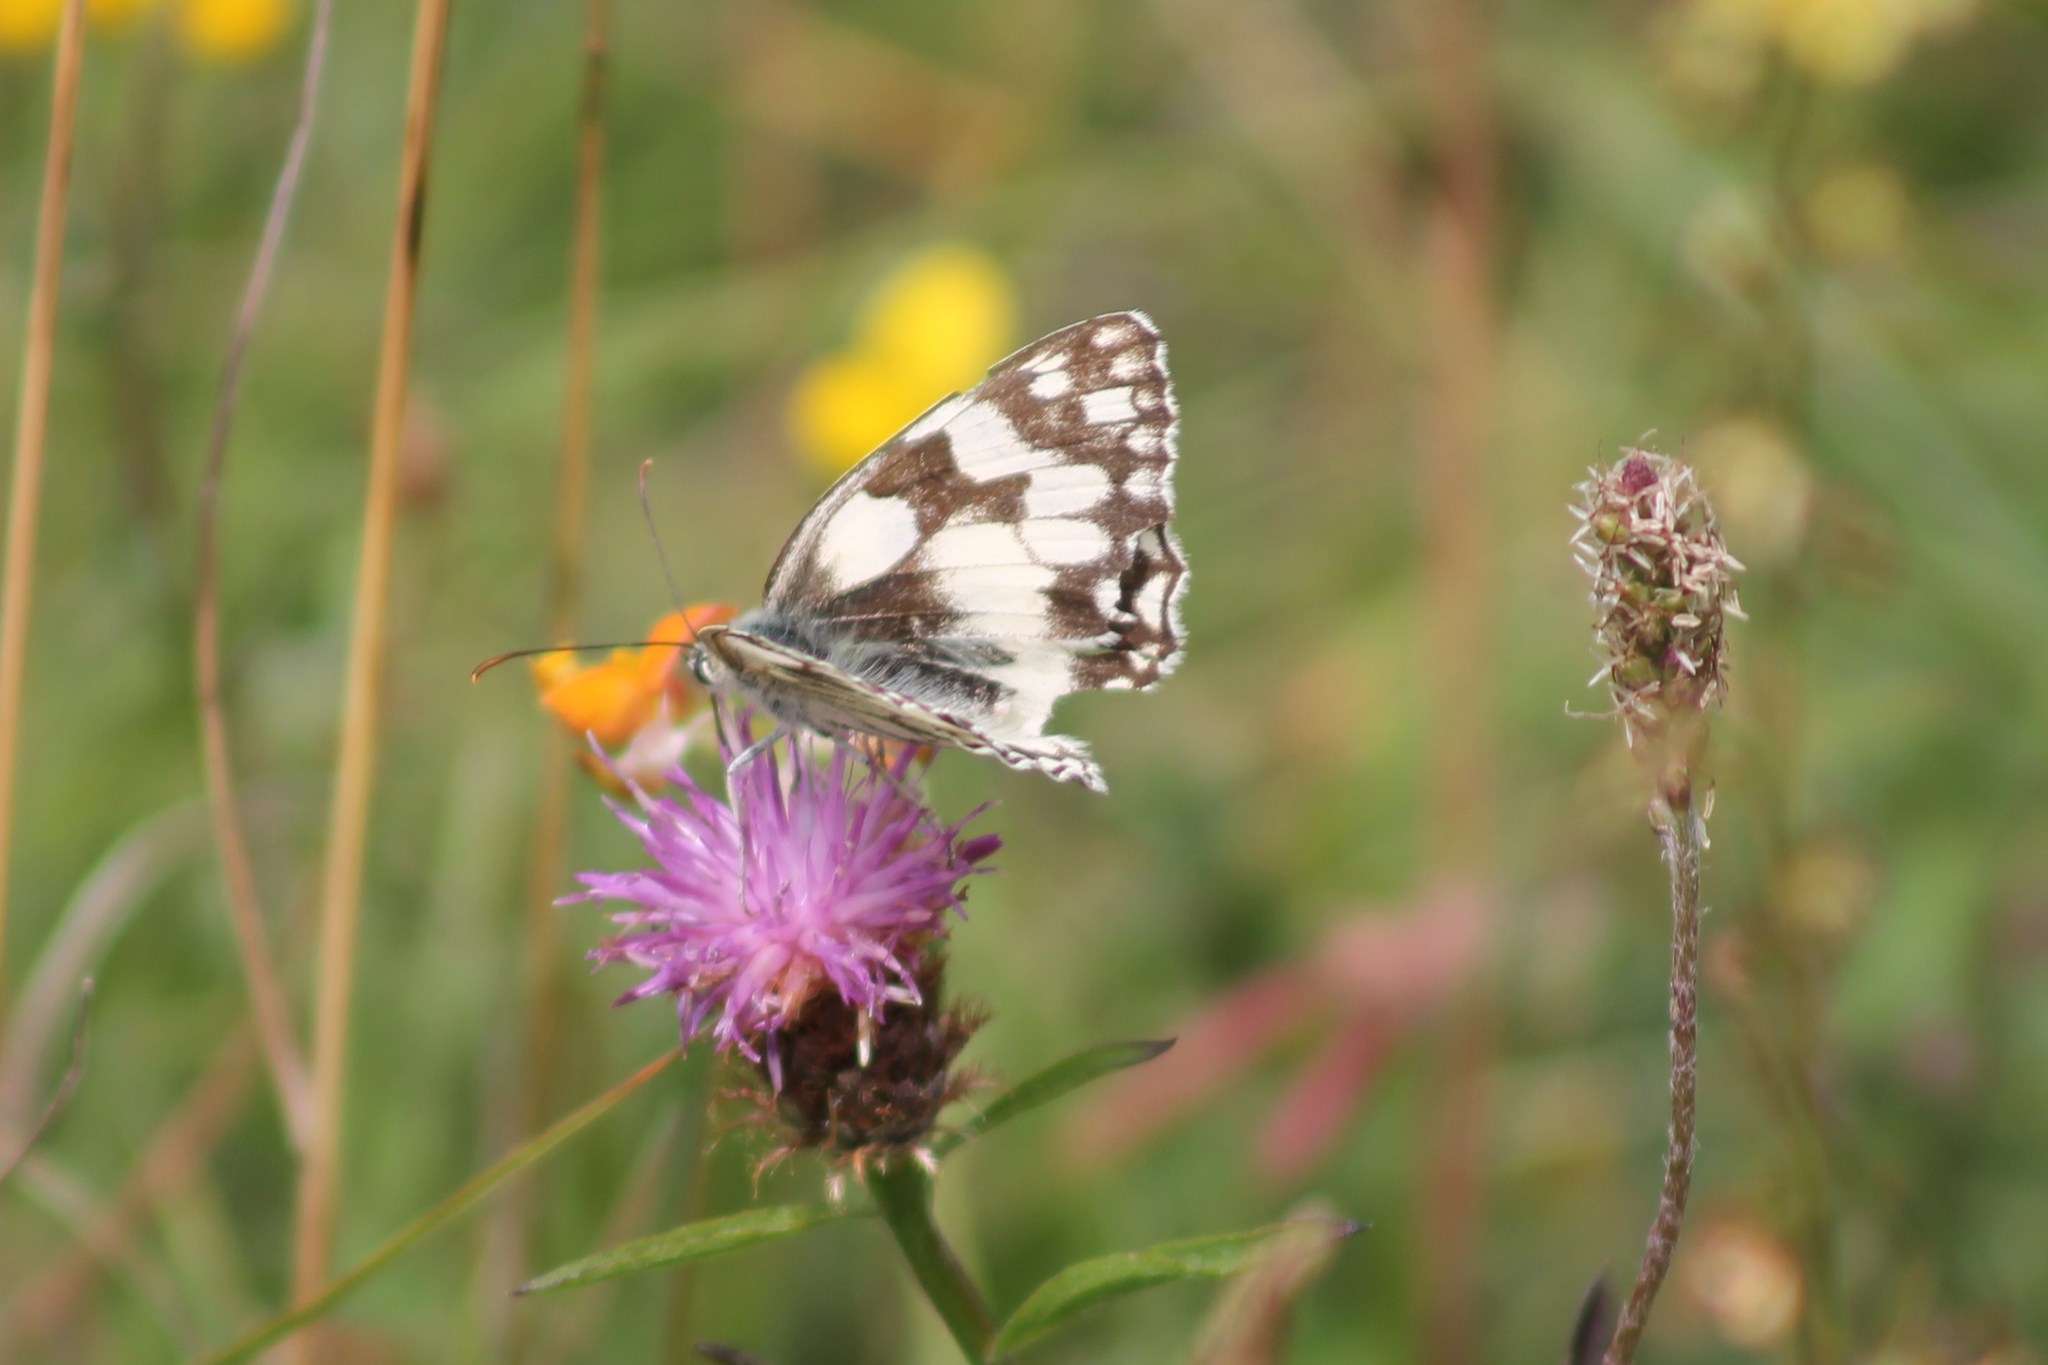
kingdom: Animalia
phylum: Arthropoda
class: Insecta
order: Lepidoptera
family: Nymphalidae
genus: Melanargia
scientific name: Melanargia galathea
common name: Marbled white
